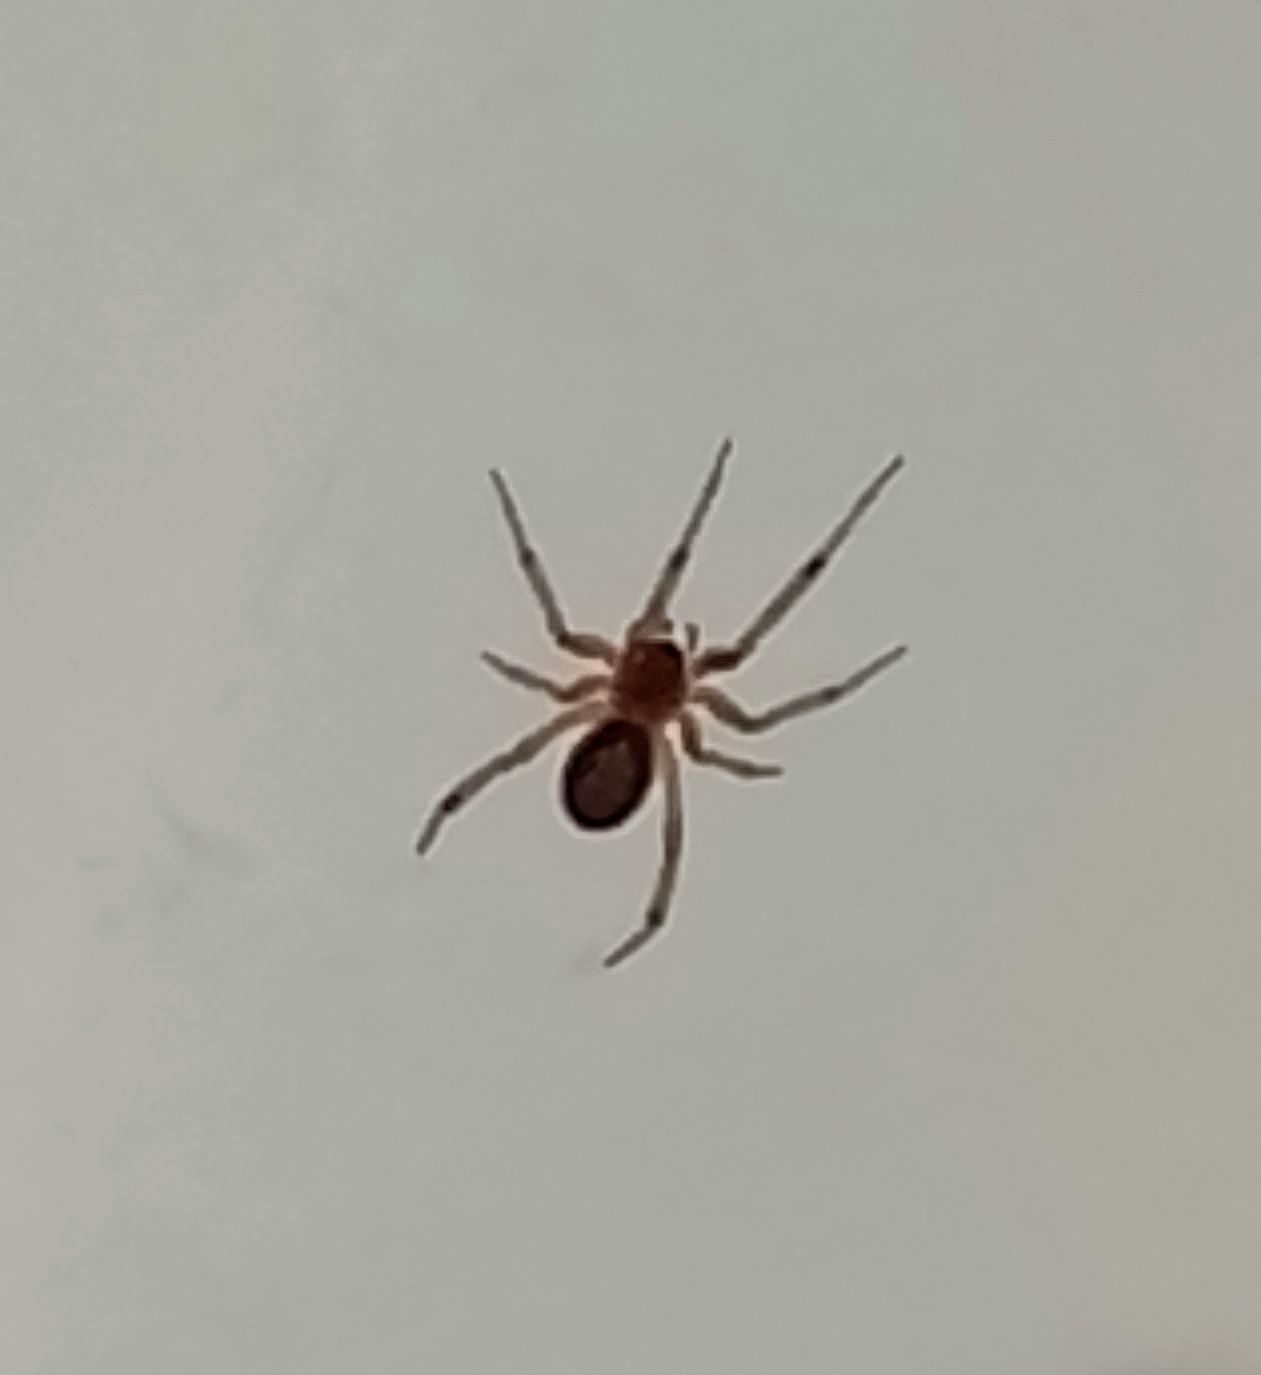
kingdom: Animalia
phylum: Arthropoda
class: Arachnida
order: Araneae
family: Theridiidae
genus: Steatoda
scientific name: Steatoda nobilis
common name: Cobweb weaver
